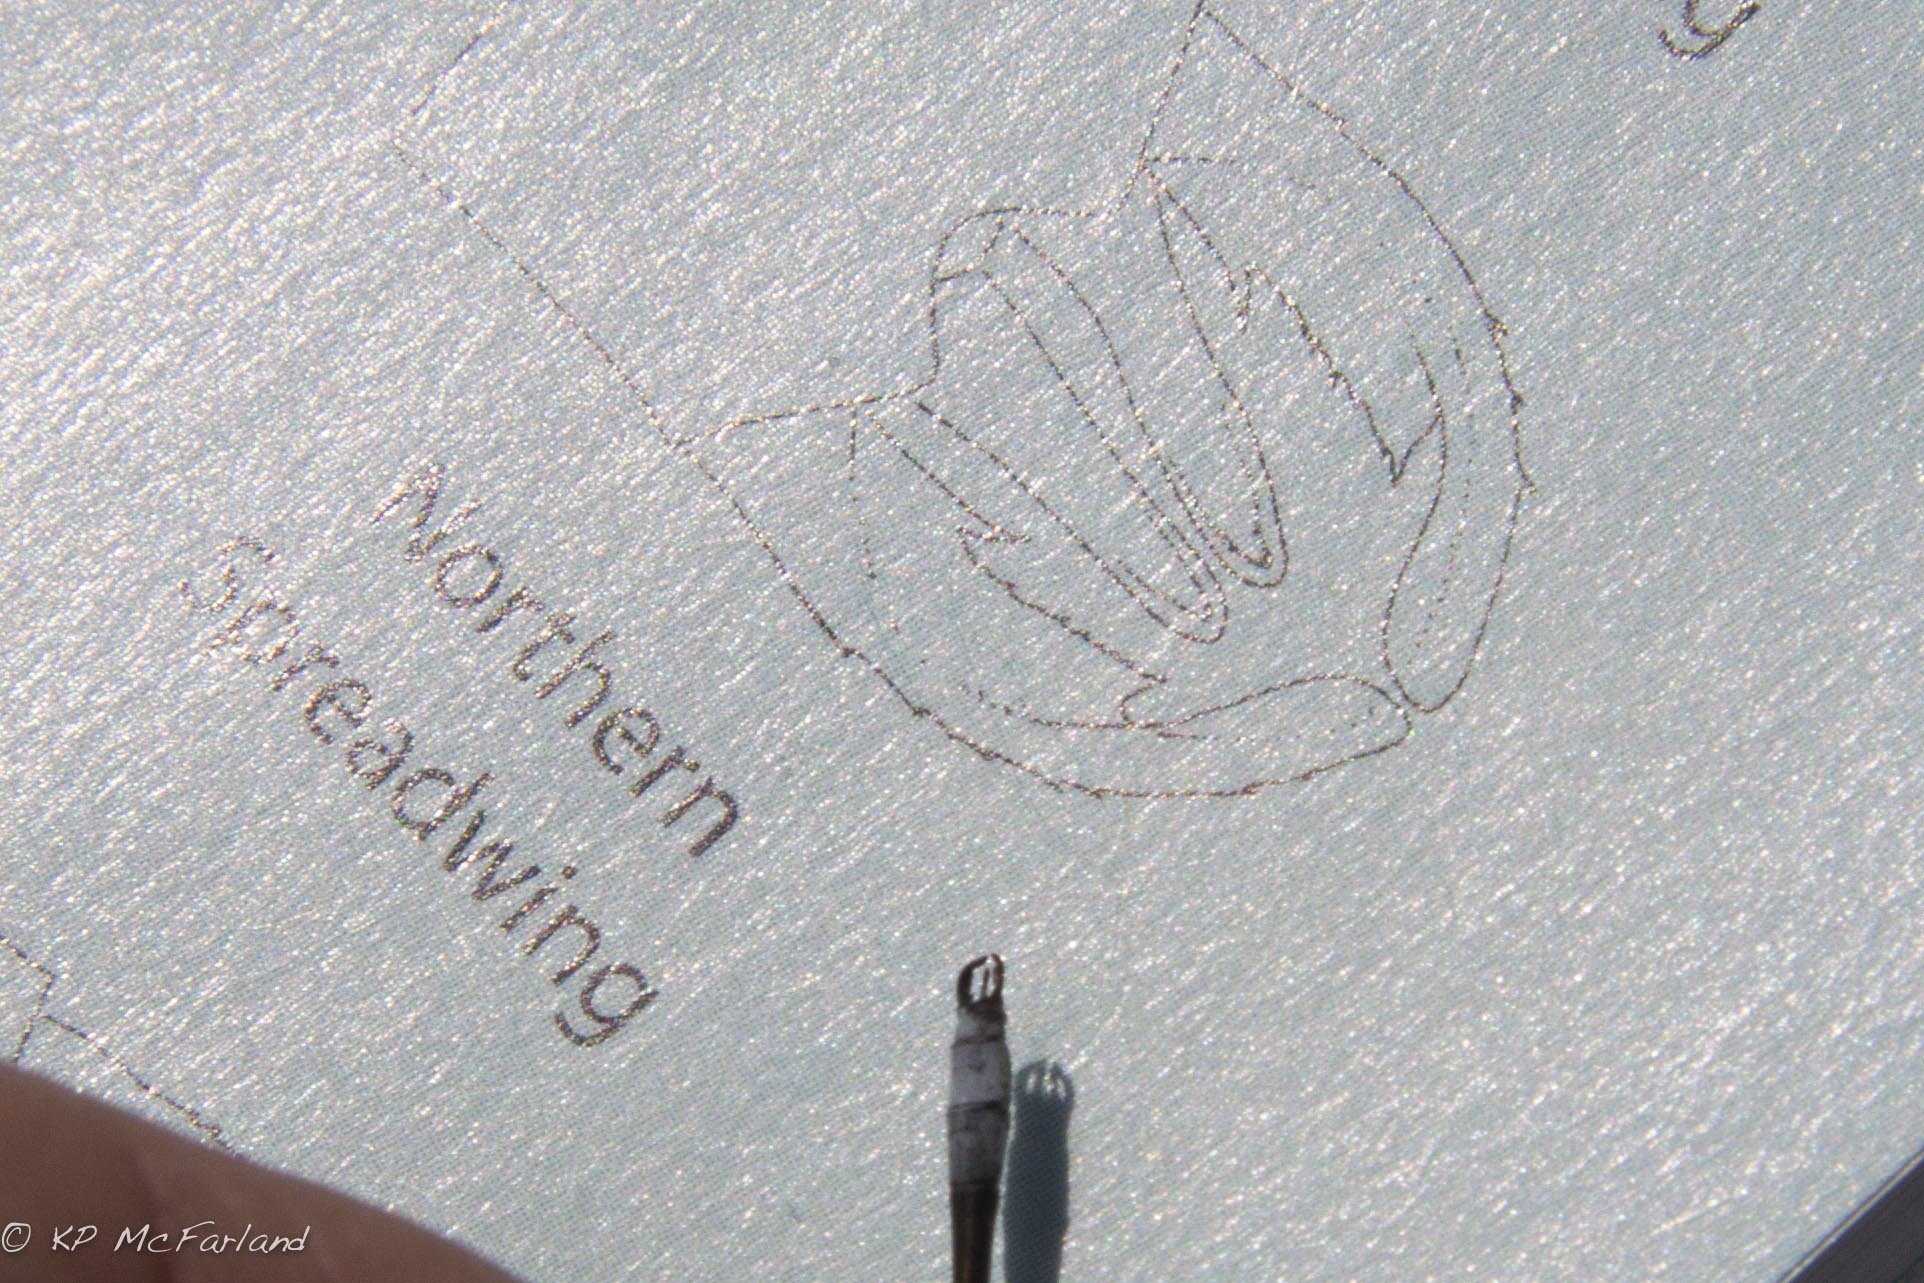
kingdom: Animalia
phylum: Arthropoda
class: Insecta
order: Odonata
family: Lestidae
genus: Lestes
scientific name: Lestes disjunctus
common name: Northern spreadwing
